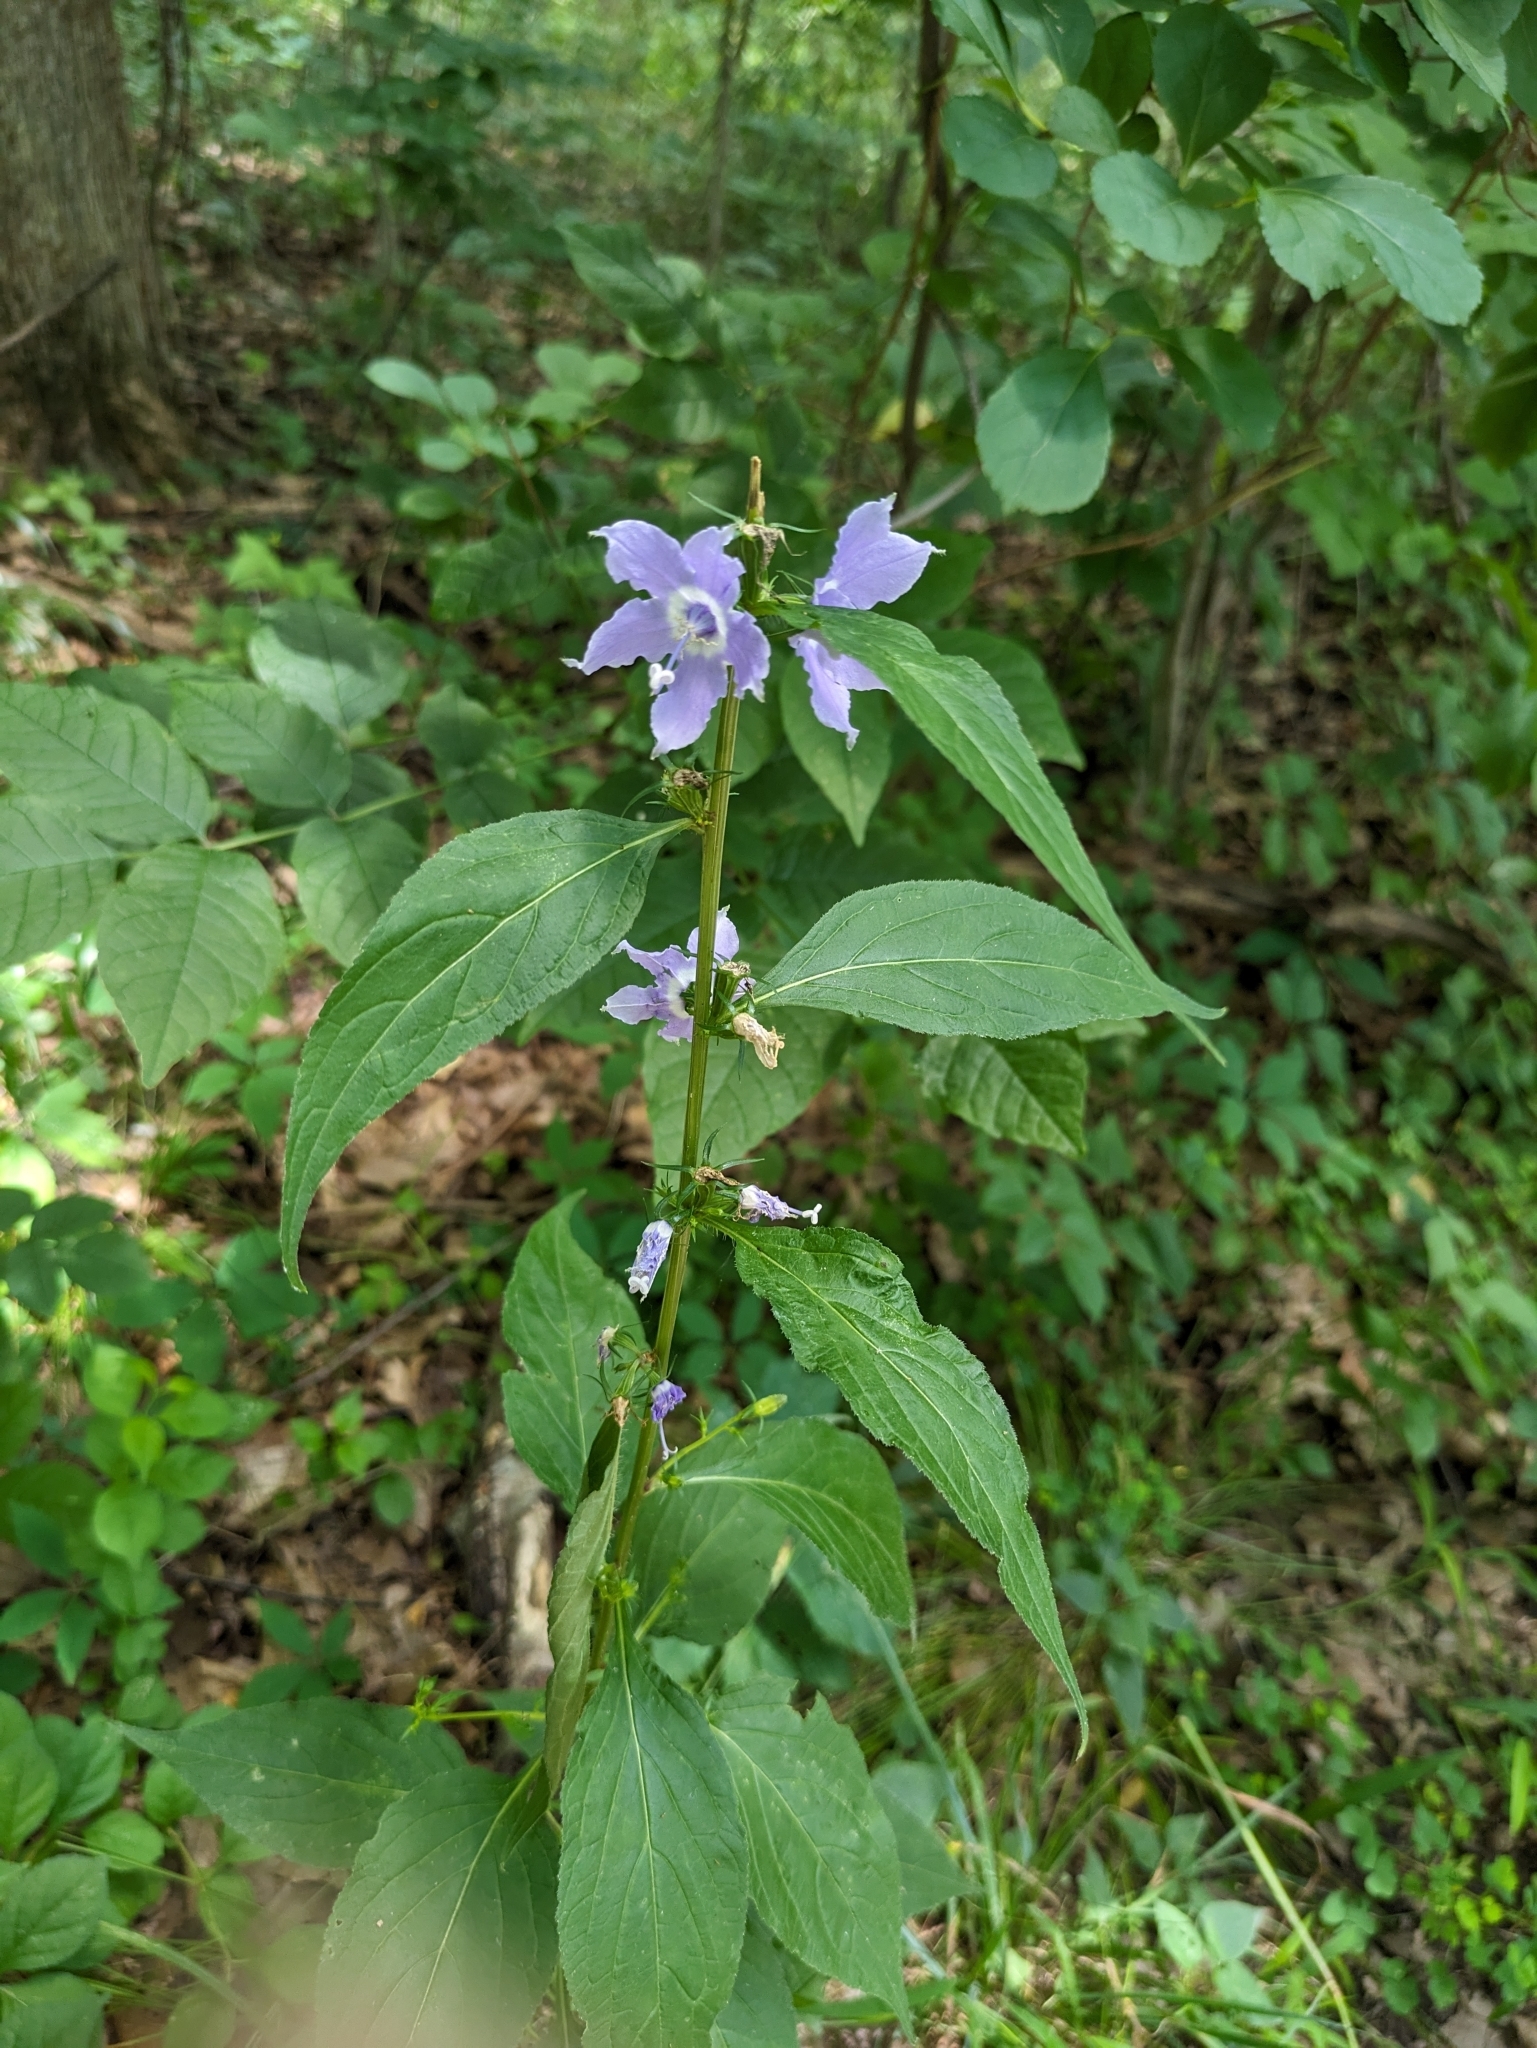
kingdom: Plantae
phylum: Tracheophyta
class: Magnoliopsida
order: Asterales
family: Campanulaceae
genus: Campanulastrum
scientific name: Campanulastrum americanum
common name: American bellflower
